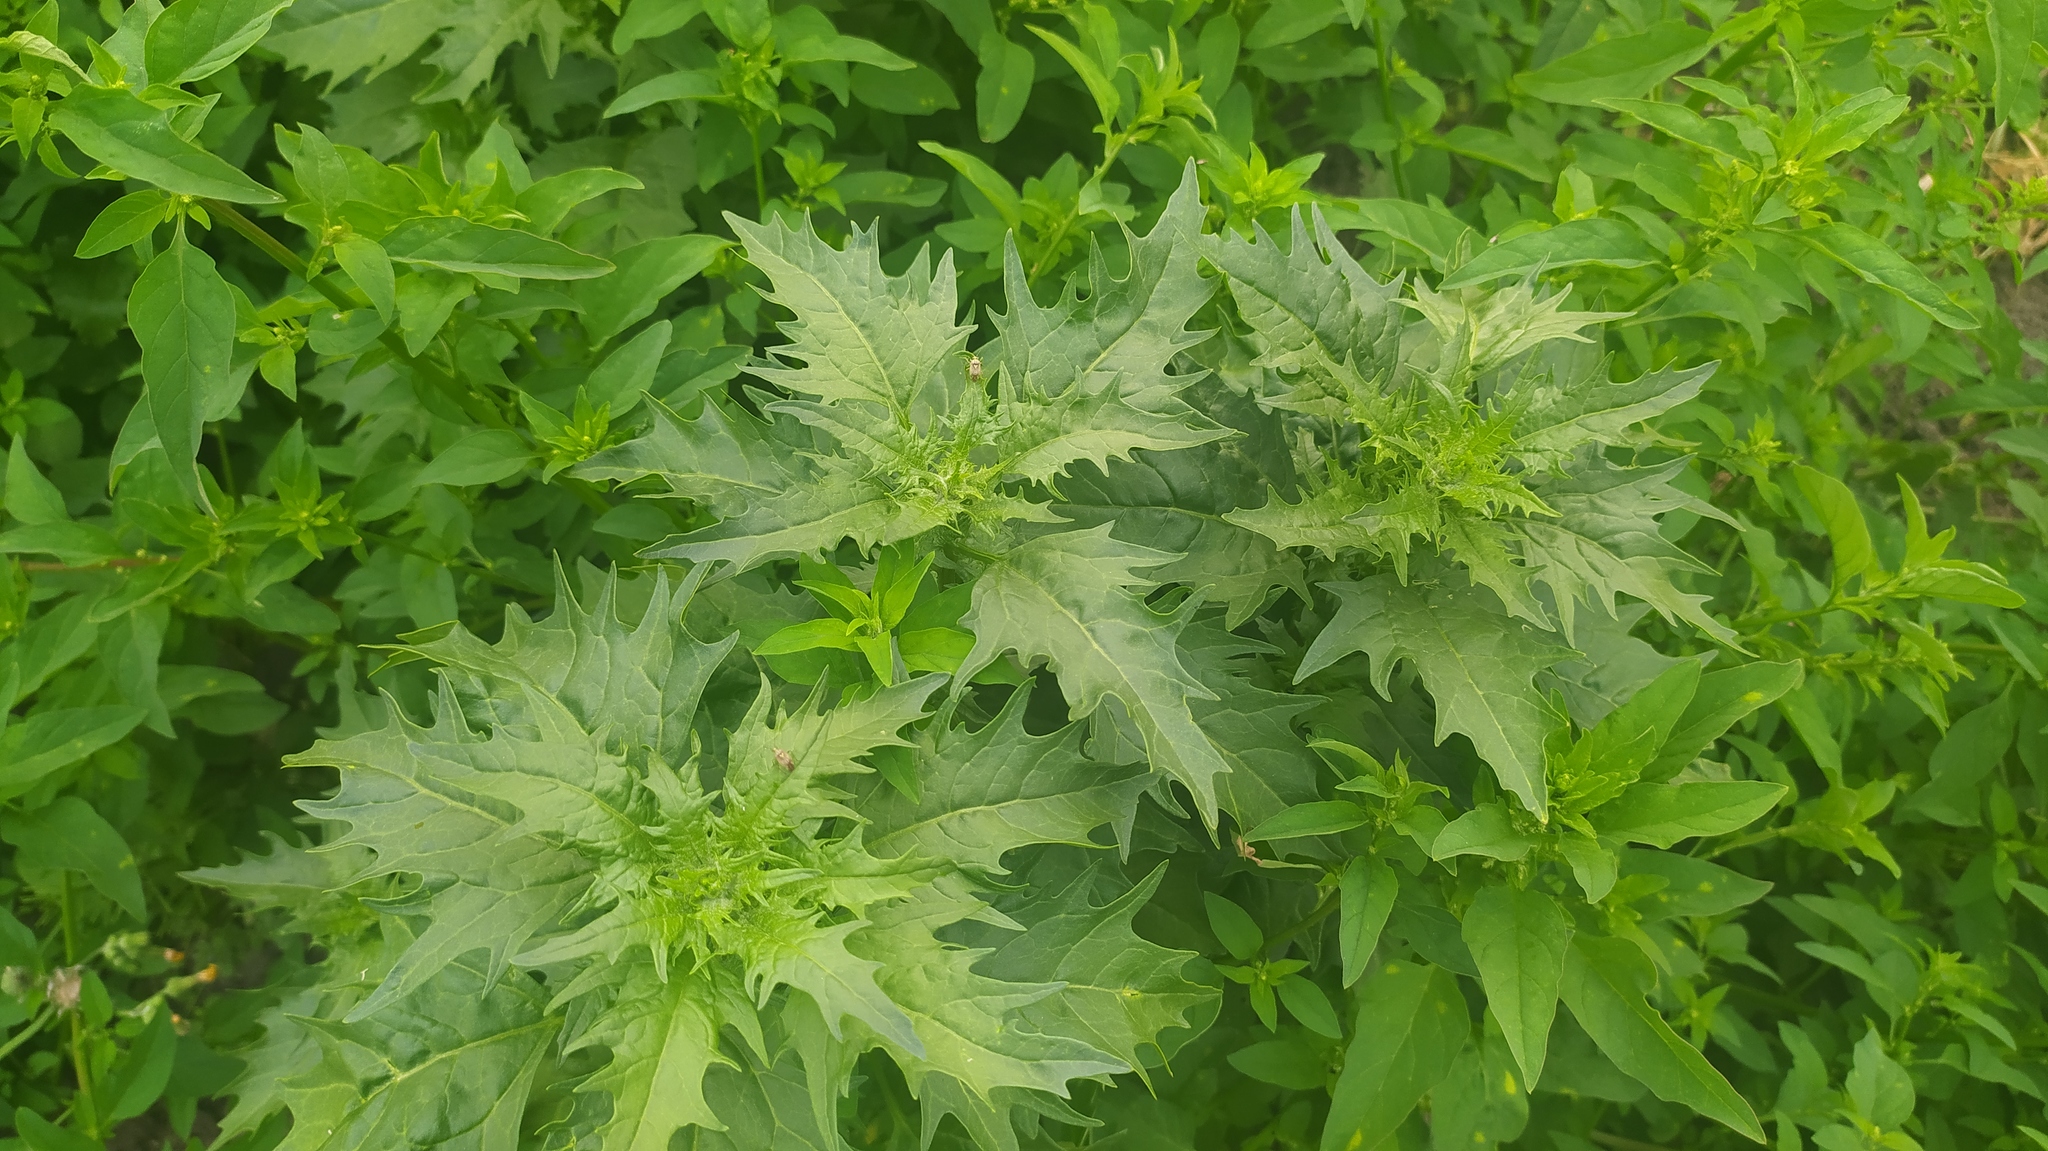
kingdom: Plantae
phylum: Tracheophyta
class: Magnoliopsida
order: Caryophyllales
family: Amaranthaceae
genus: Oxybasis
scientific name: Oxybasis rubra
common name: Red goosefoot
